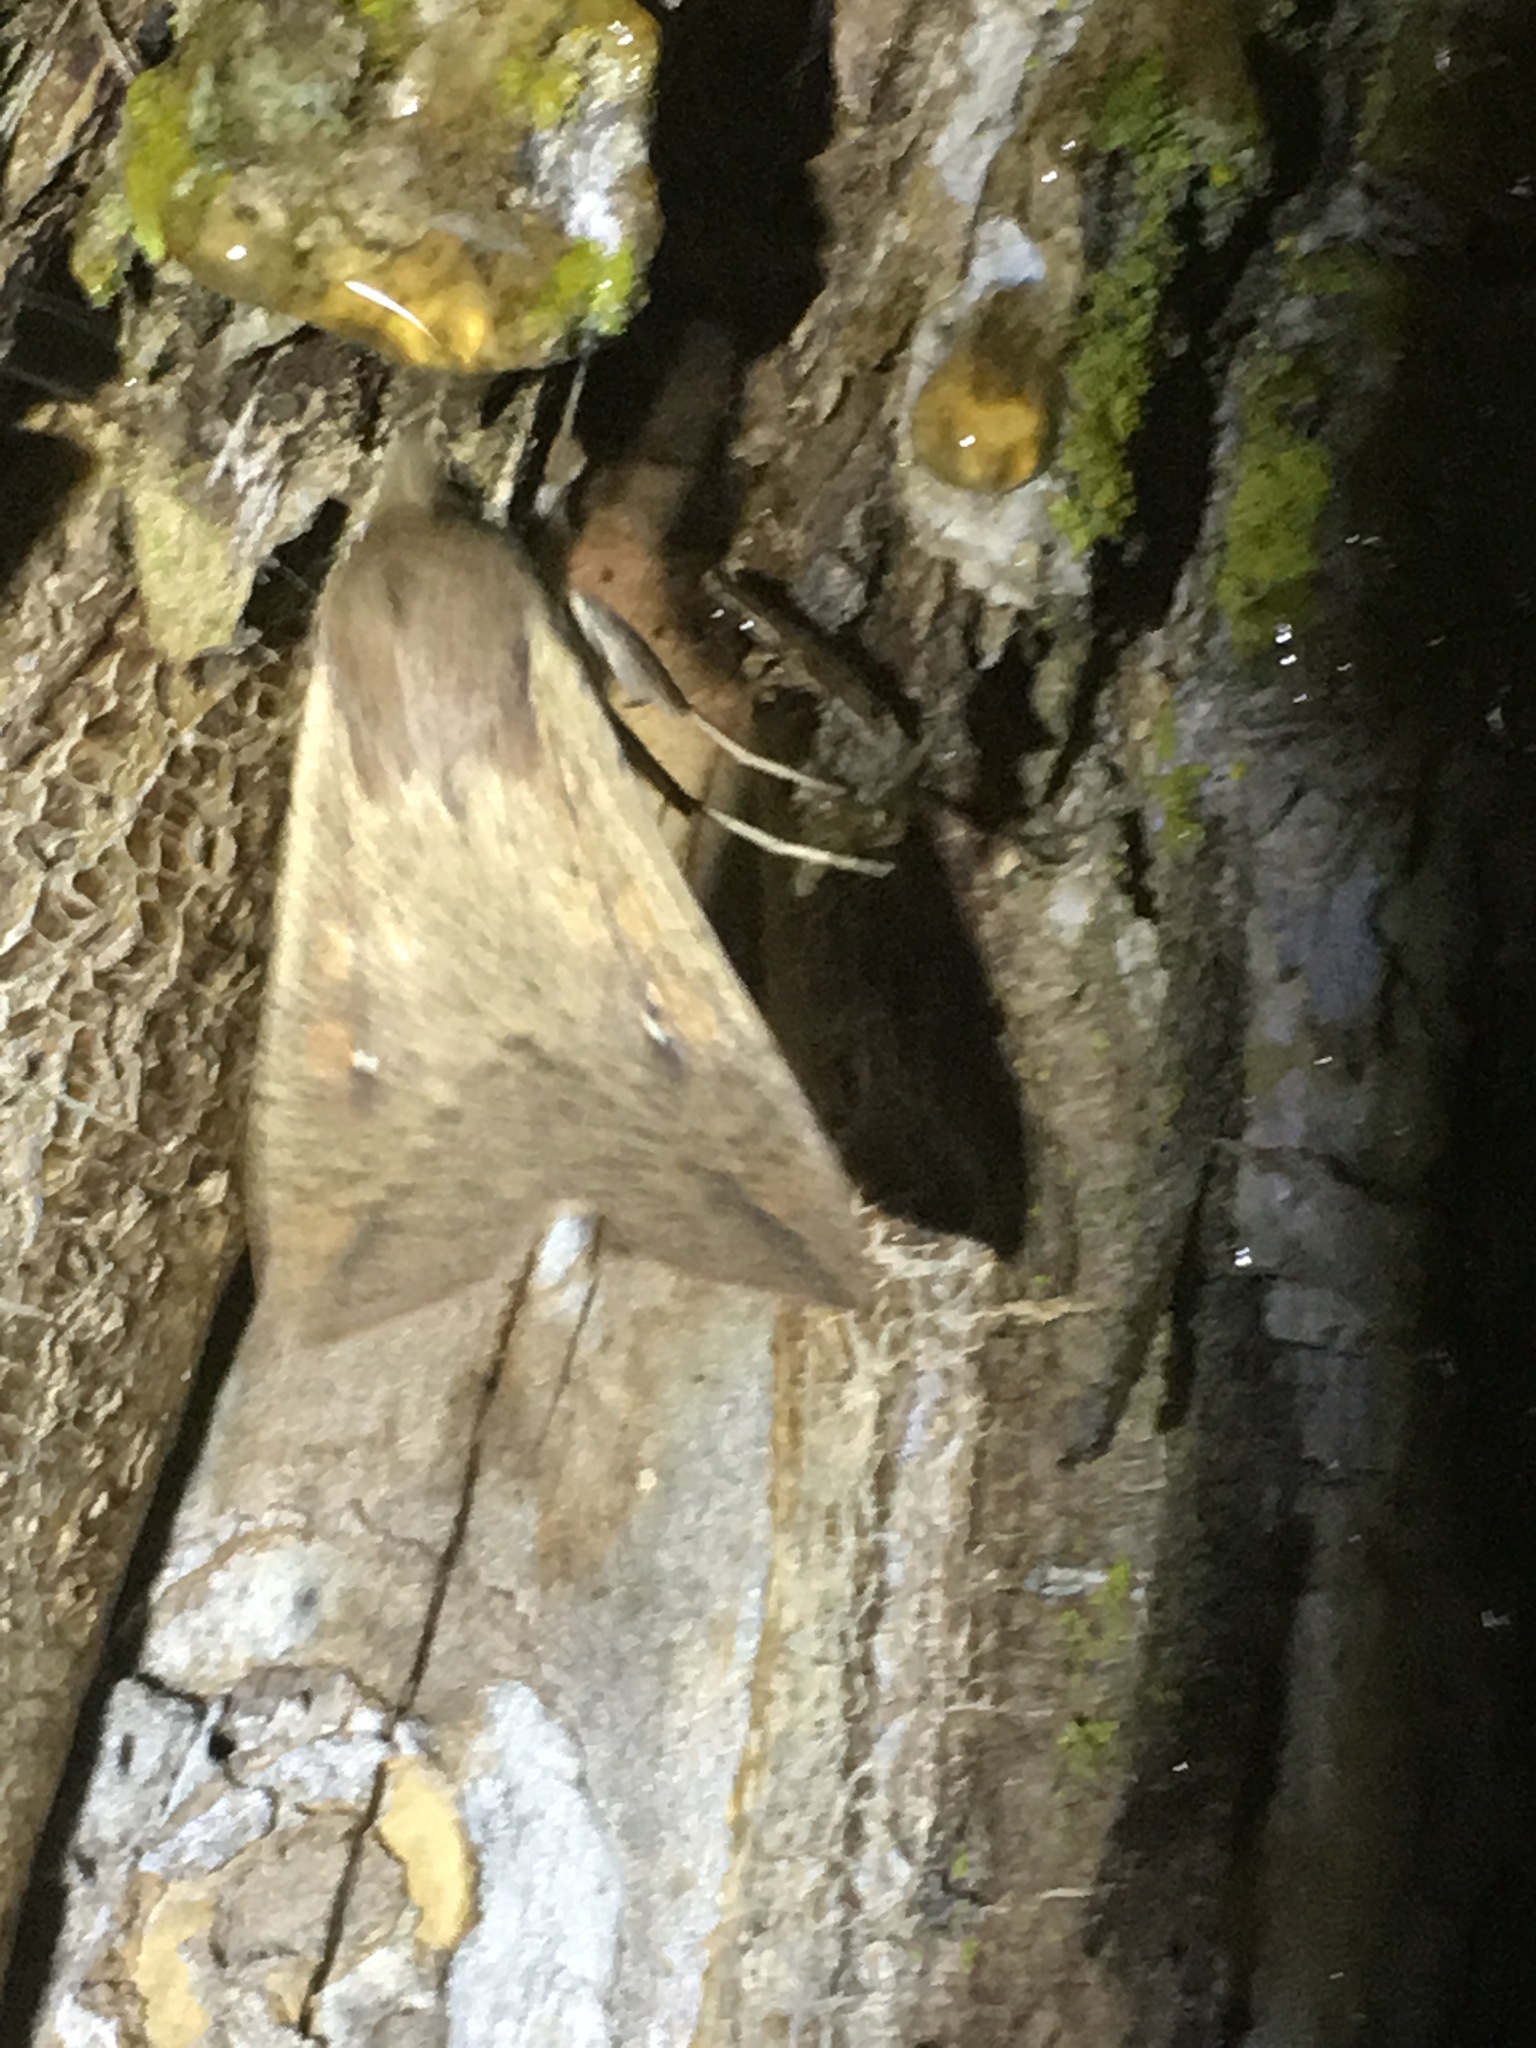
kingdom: Animalia
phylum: Arthropoda
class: Insecta
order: Lepidoptera
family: Noctuidae
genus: Mythimna
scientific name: Mythimna unipuncta
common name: White-speck
